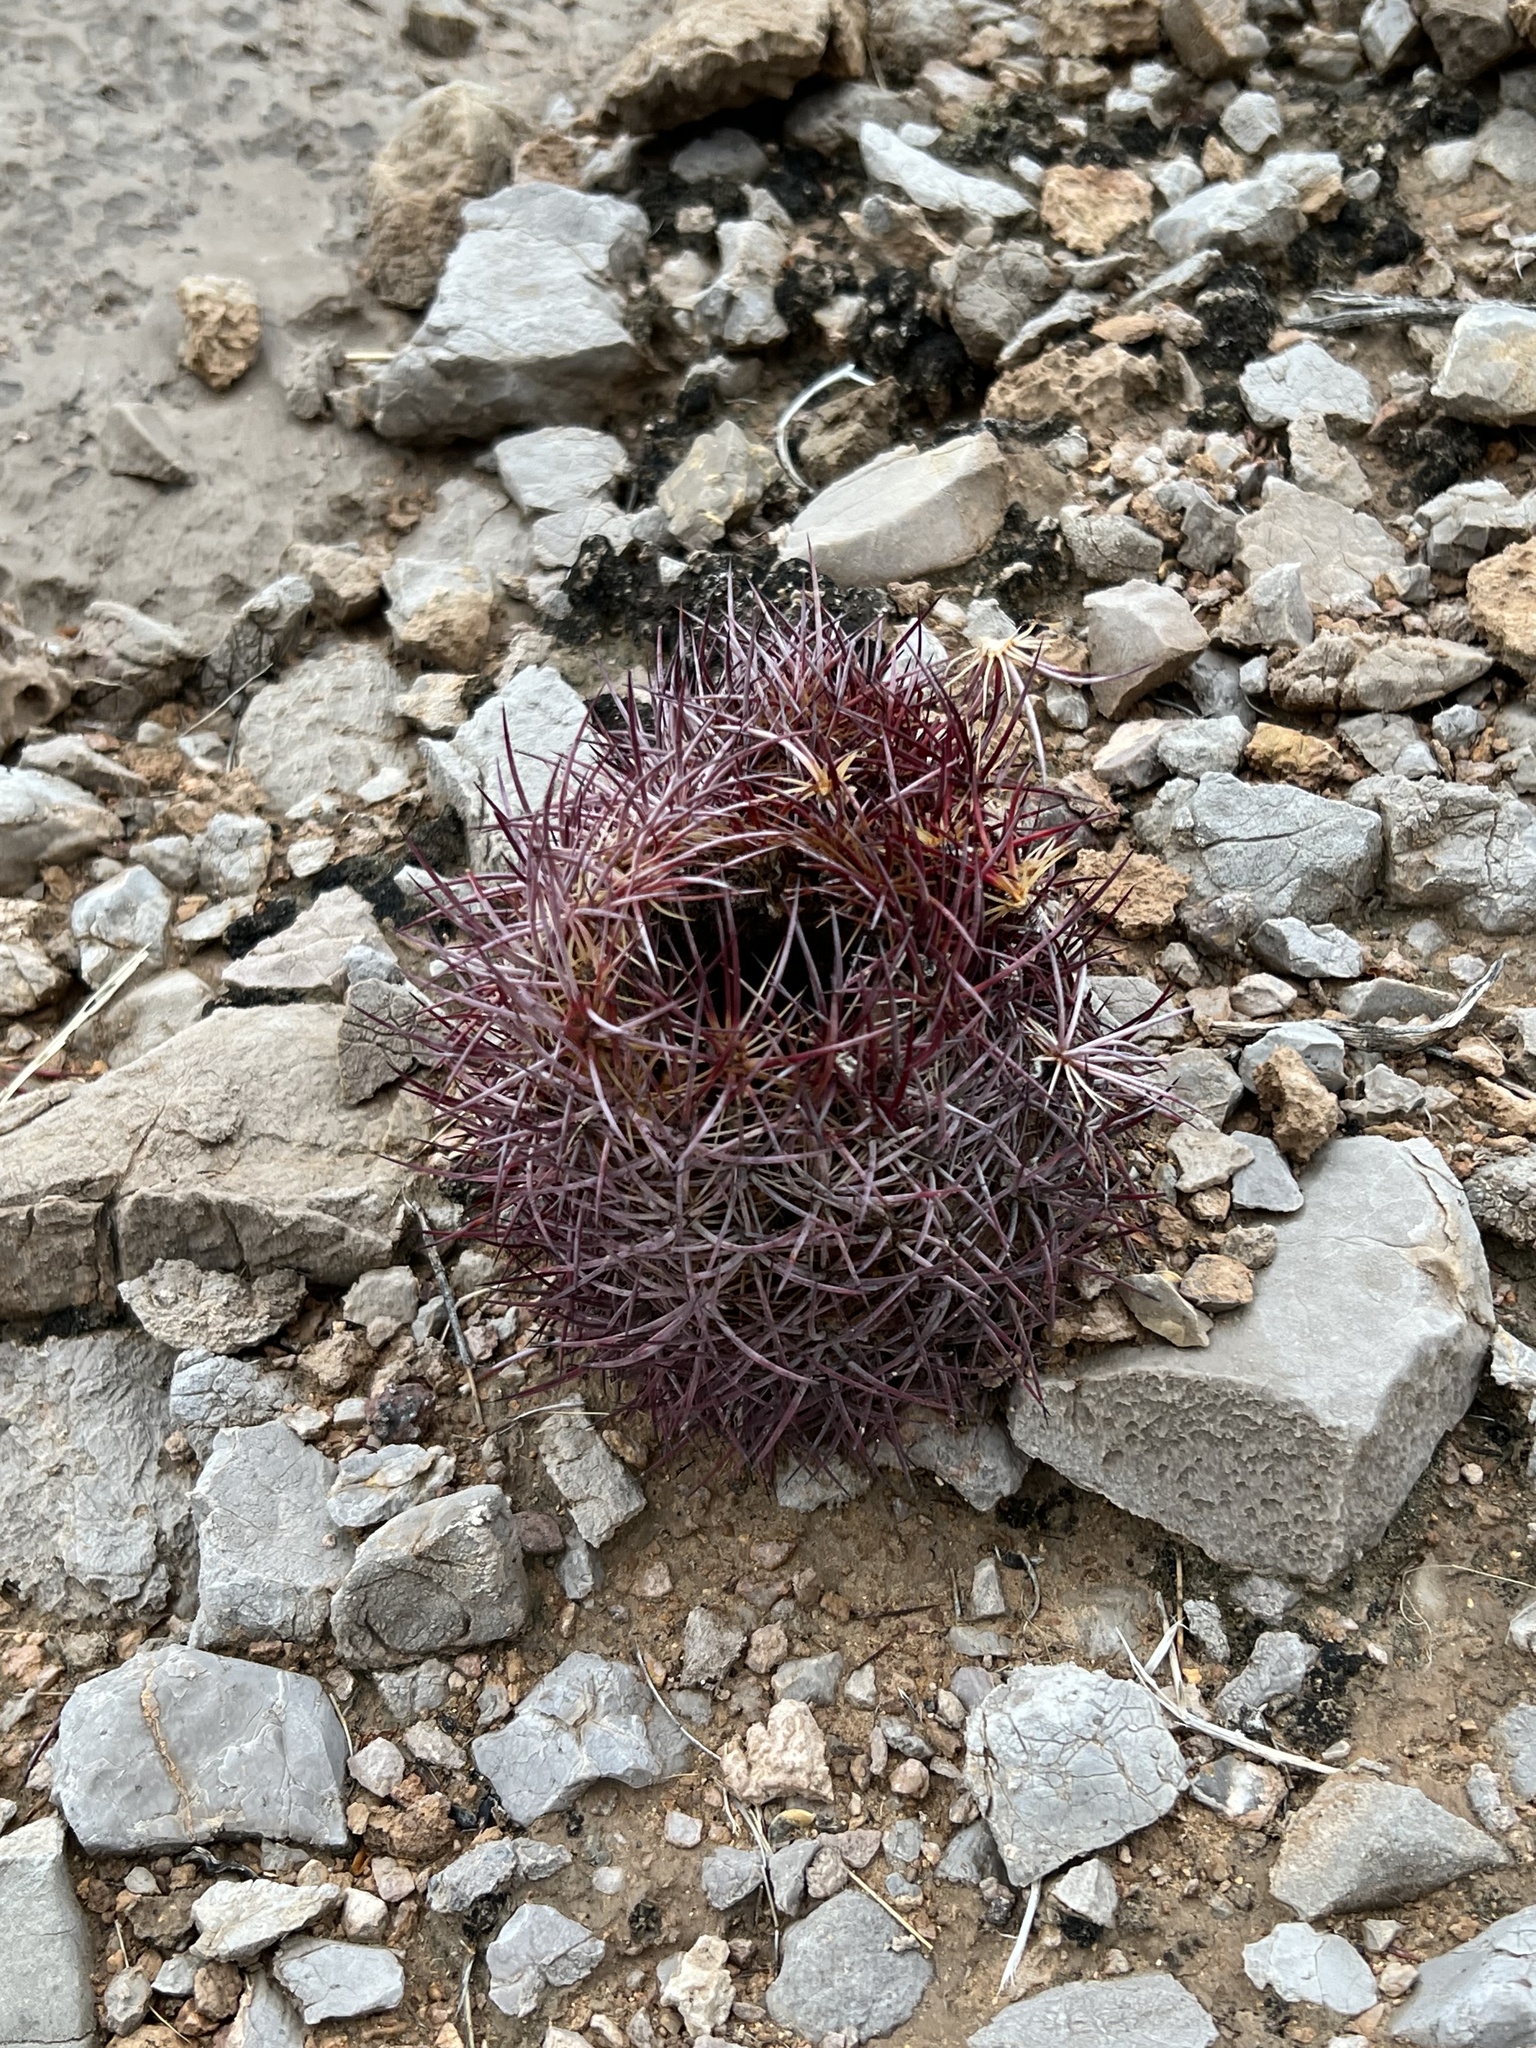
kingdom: Plantae
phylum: Tracheophyta
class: Magnoliopsida
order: Caryophyllales
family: Cactaceae
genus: Sclerocactus
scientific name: Sclerocactus johnsonii
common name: Eight-spine fishhook cactus
